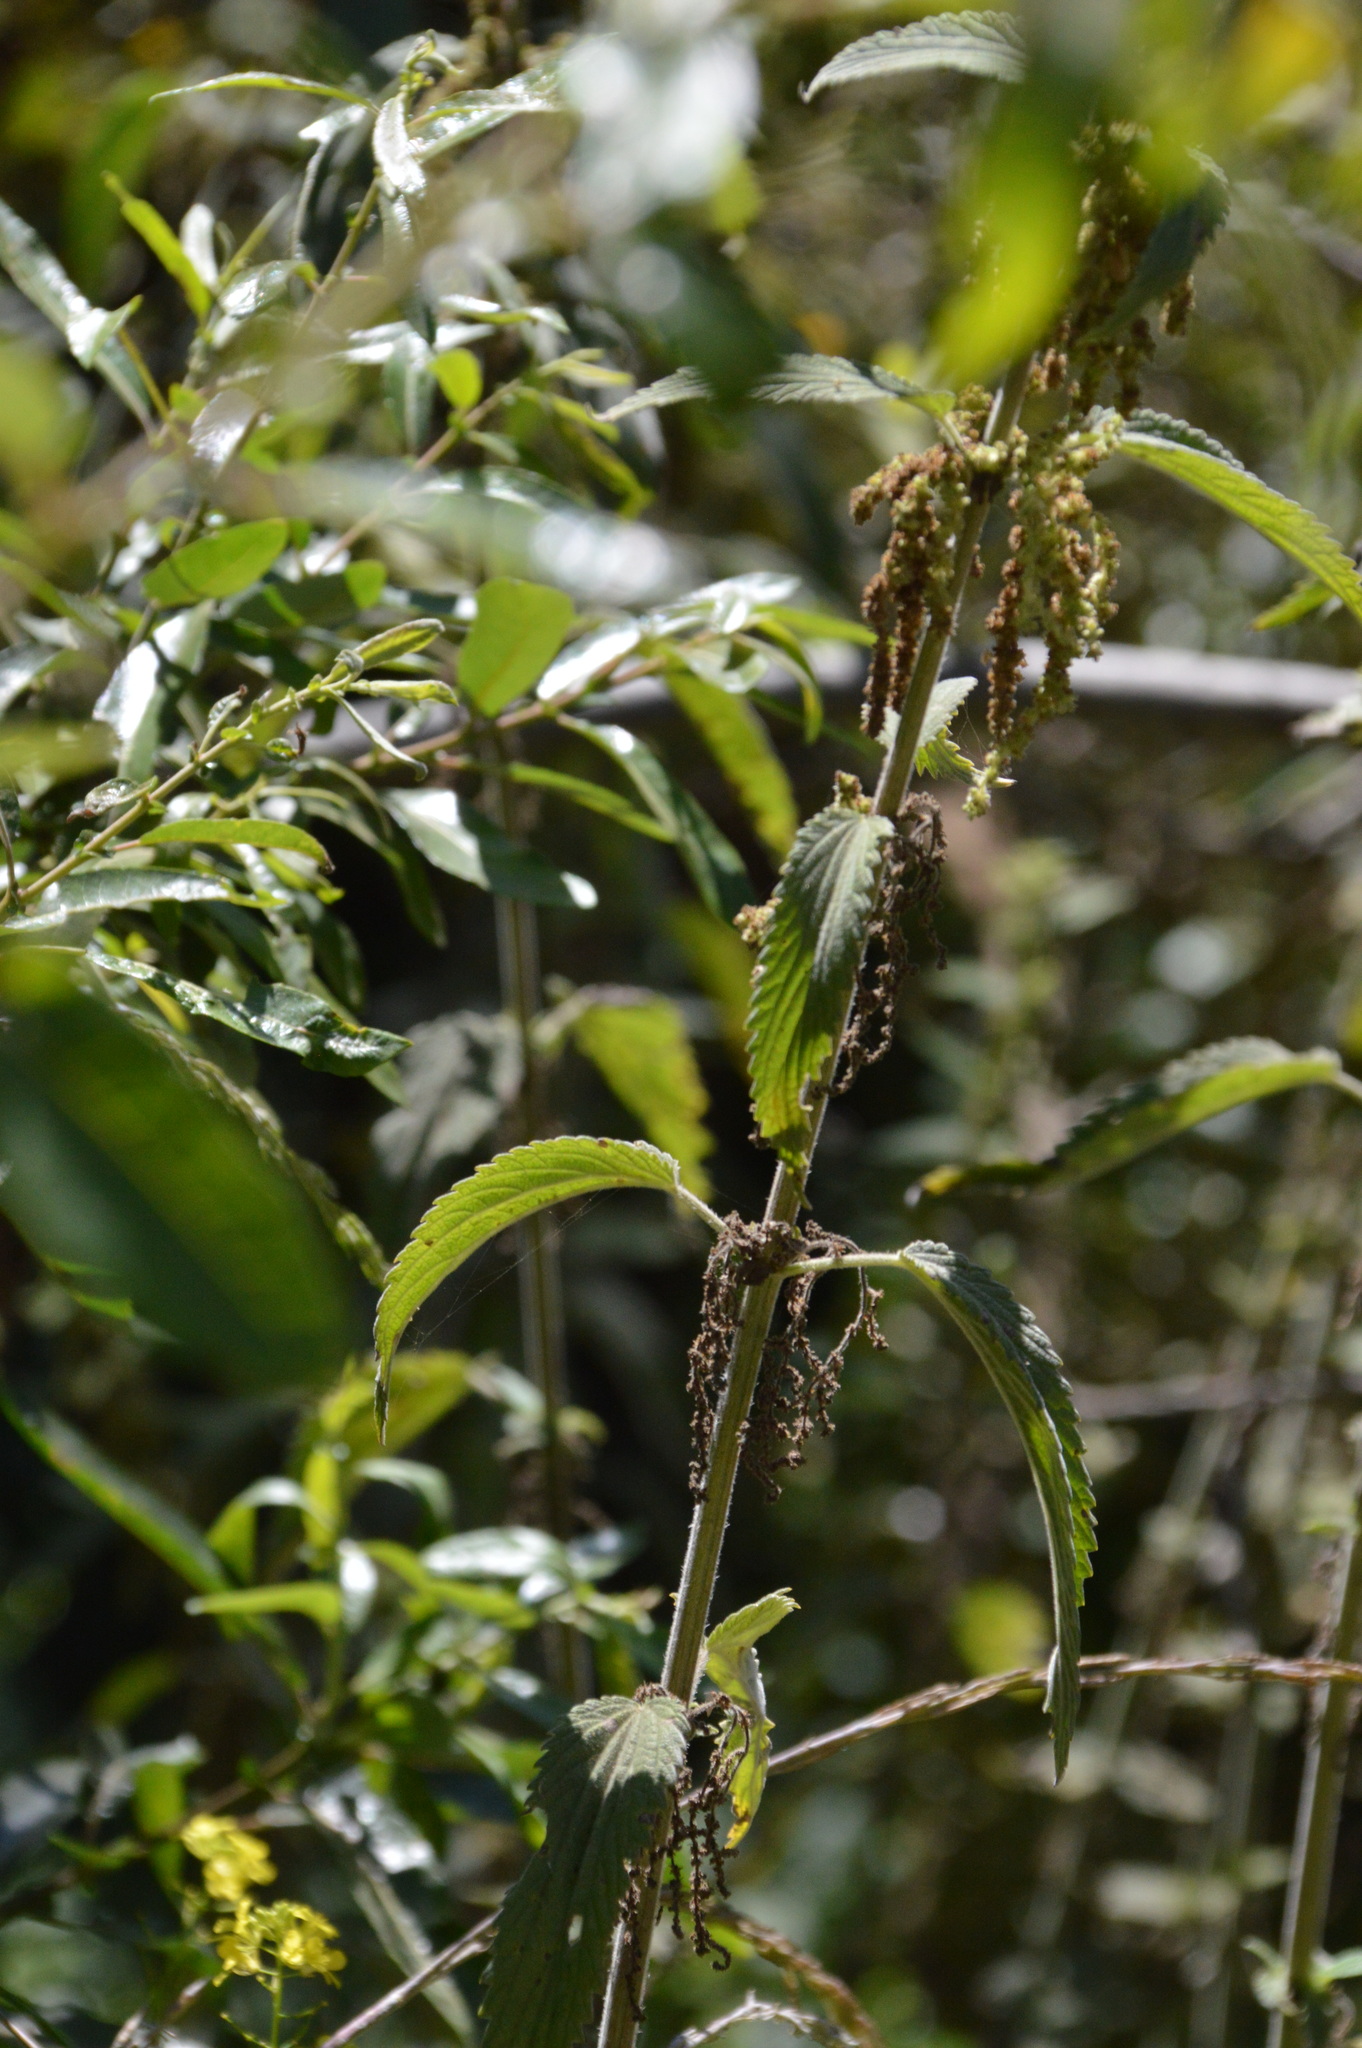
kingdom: Plantae
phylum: Tracheophyta
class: Magnoliopsida
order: Rosales
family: Urticaceae
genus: Urtica
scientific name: Urtica dioica
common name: Common nettle
